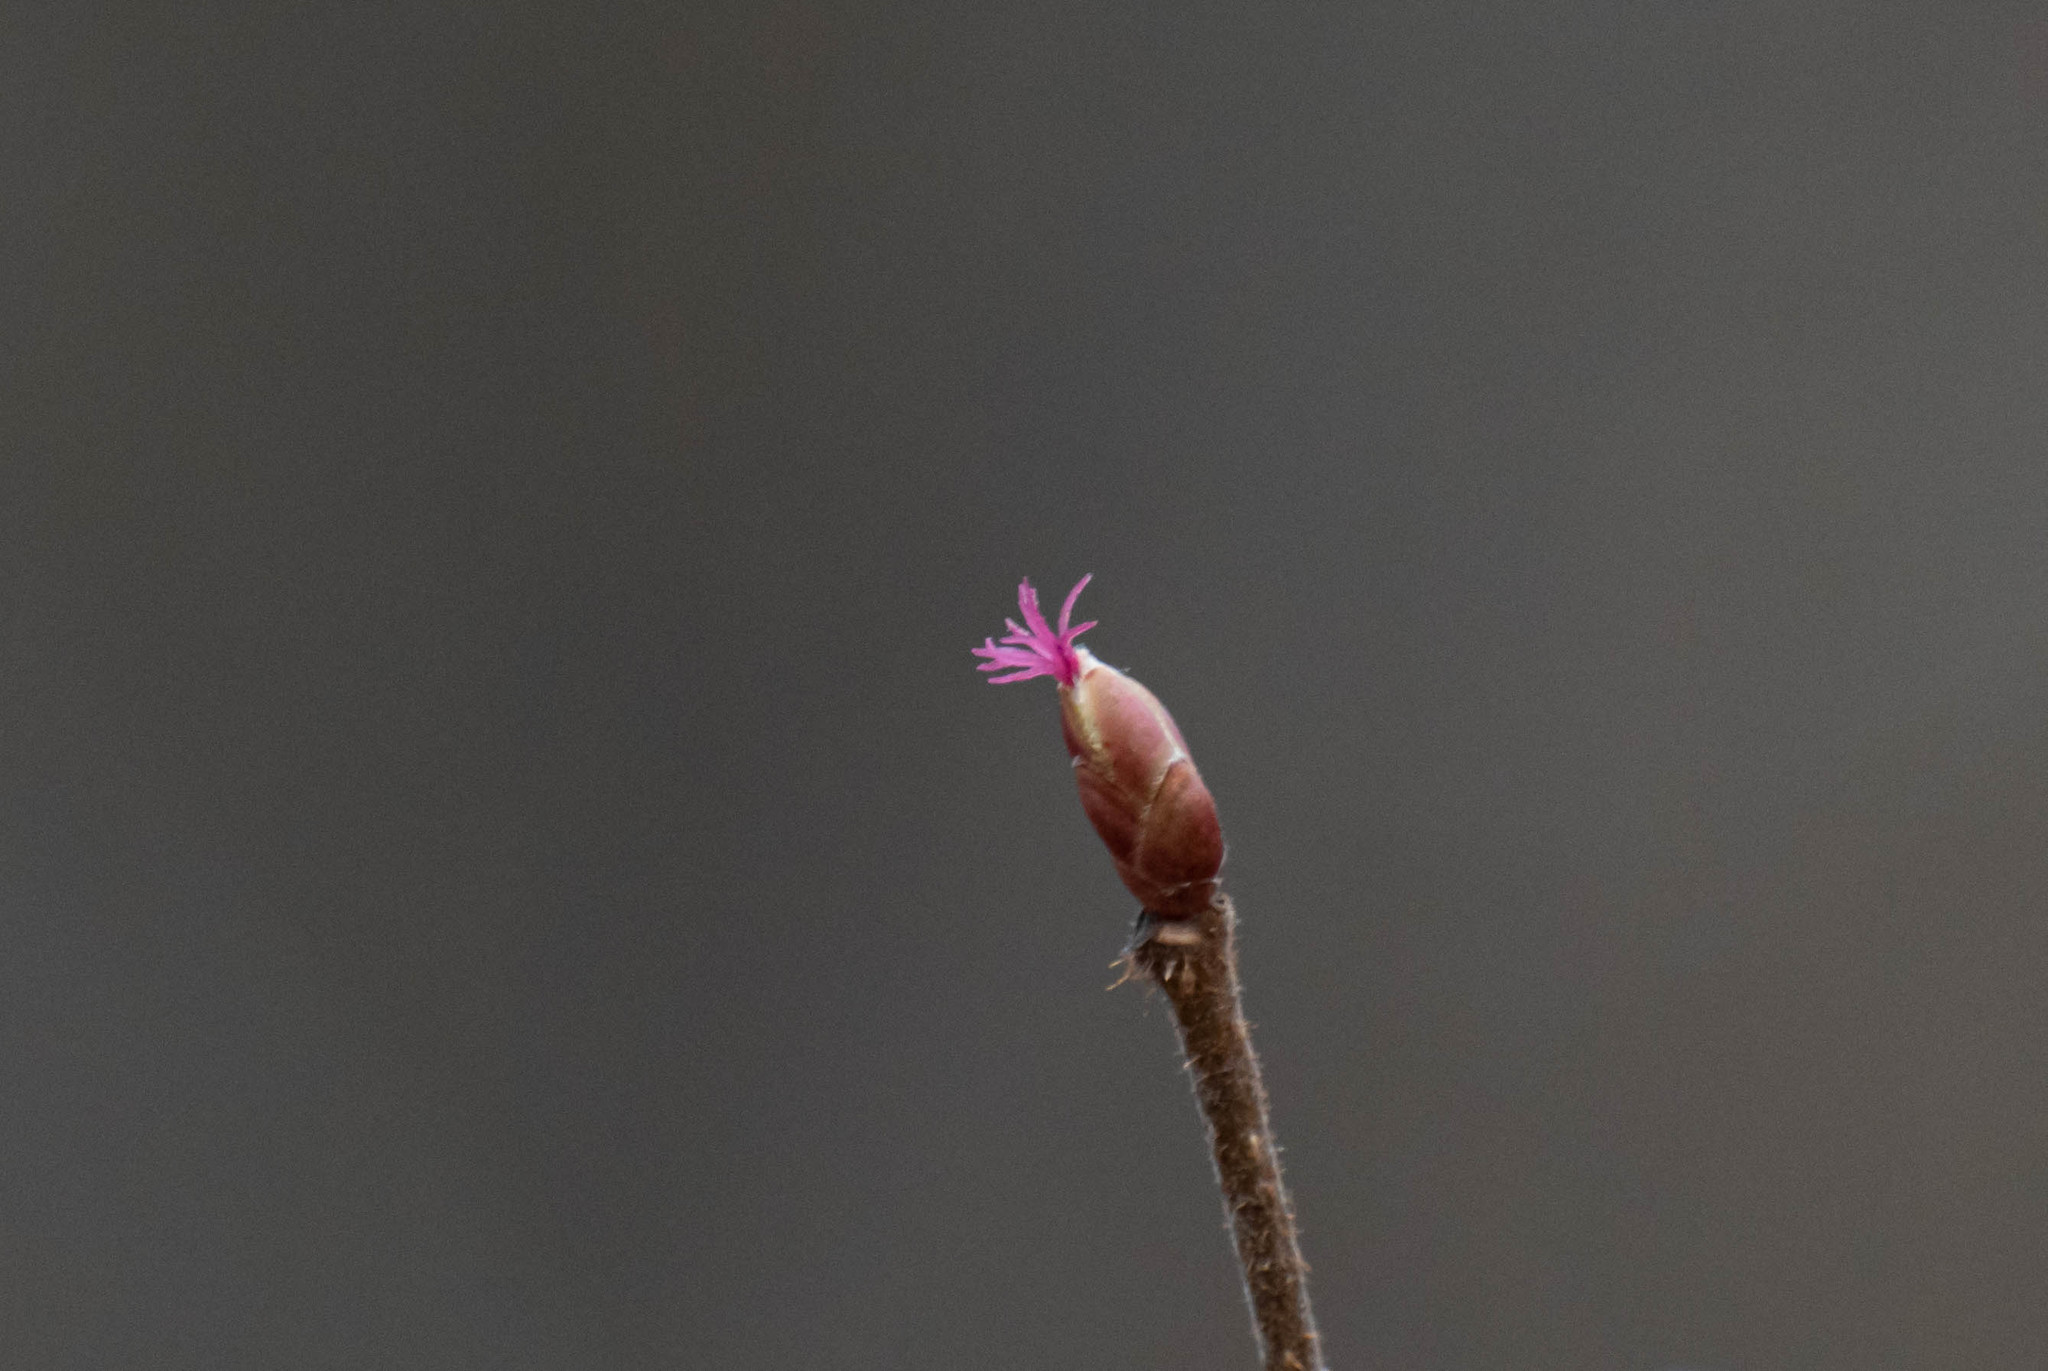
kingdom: Plantae
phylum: Tracheophyta
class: Magnoliopsida
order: Fagales
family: Betulaceae
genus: Corylus
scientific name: Corylus avellana
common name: European hazel
